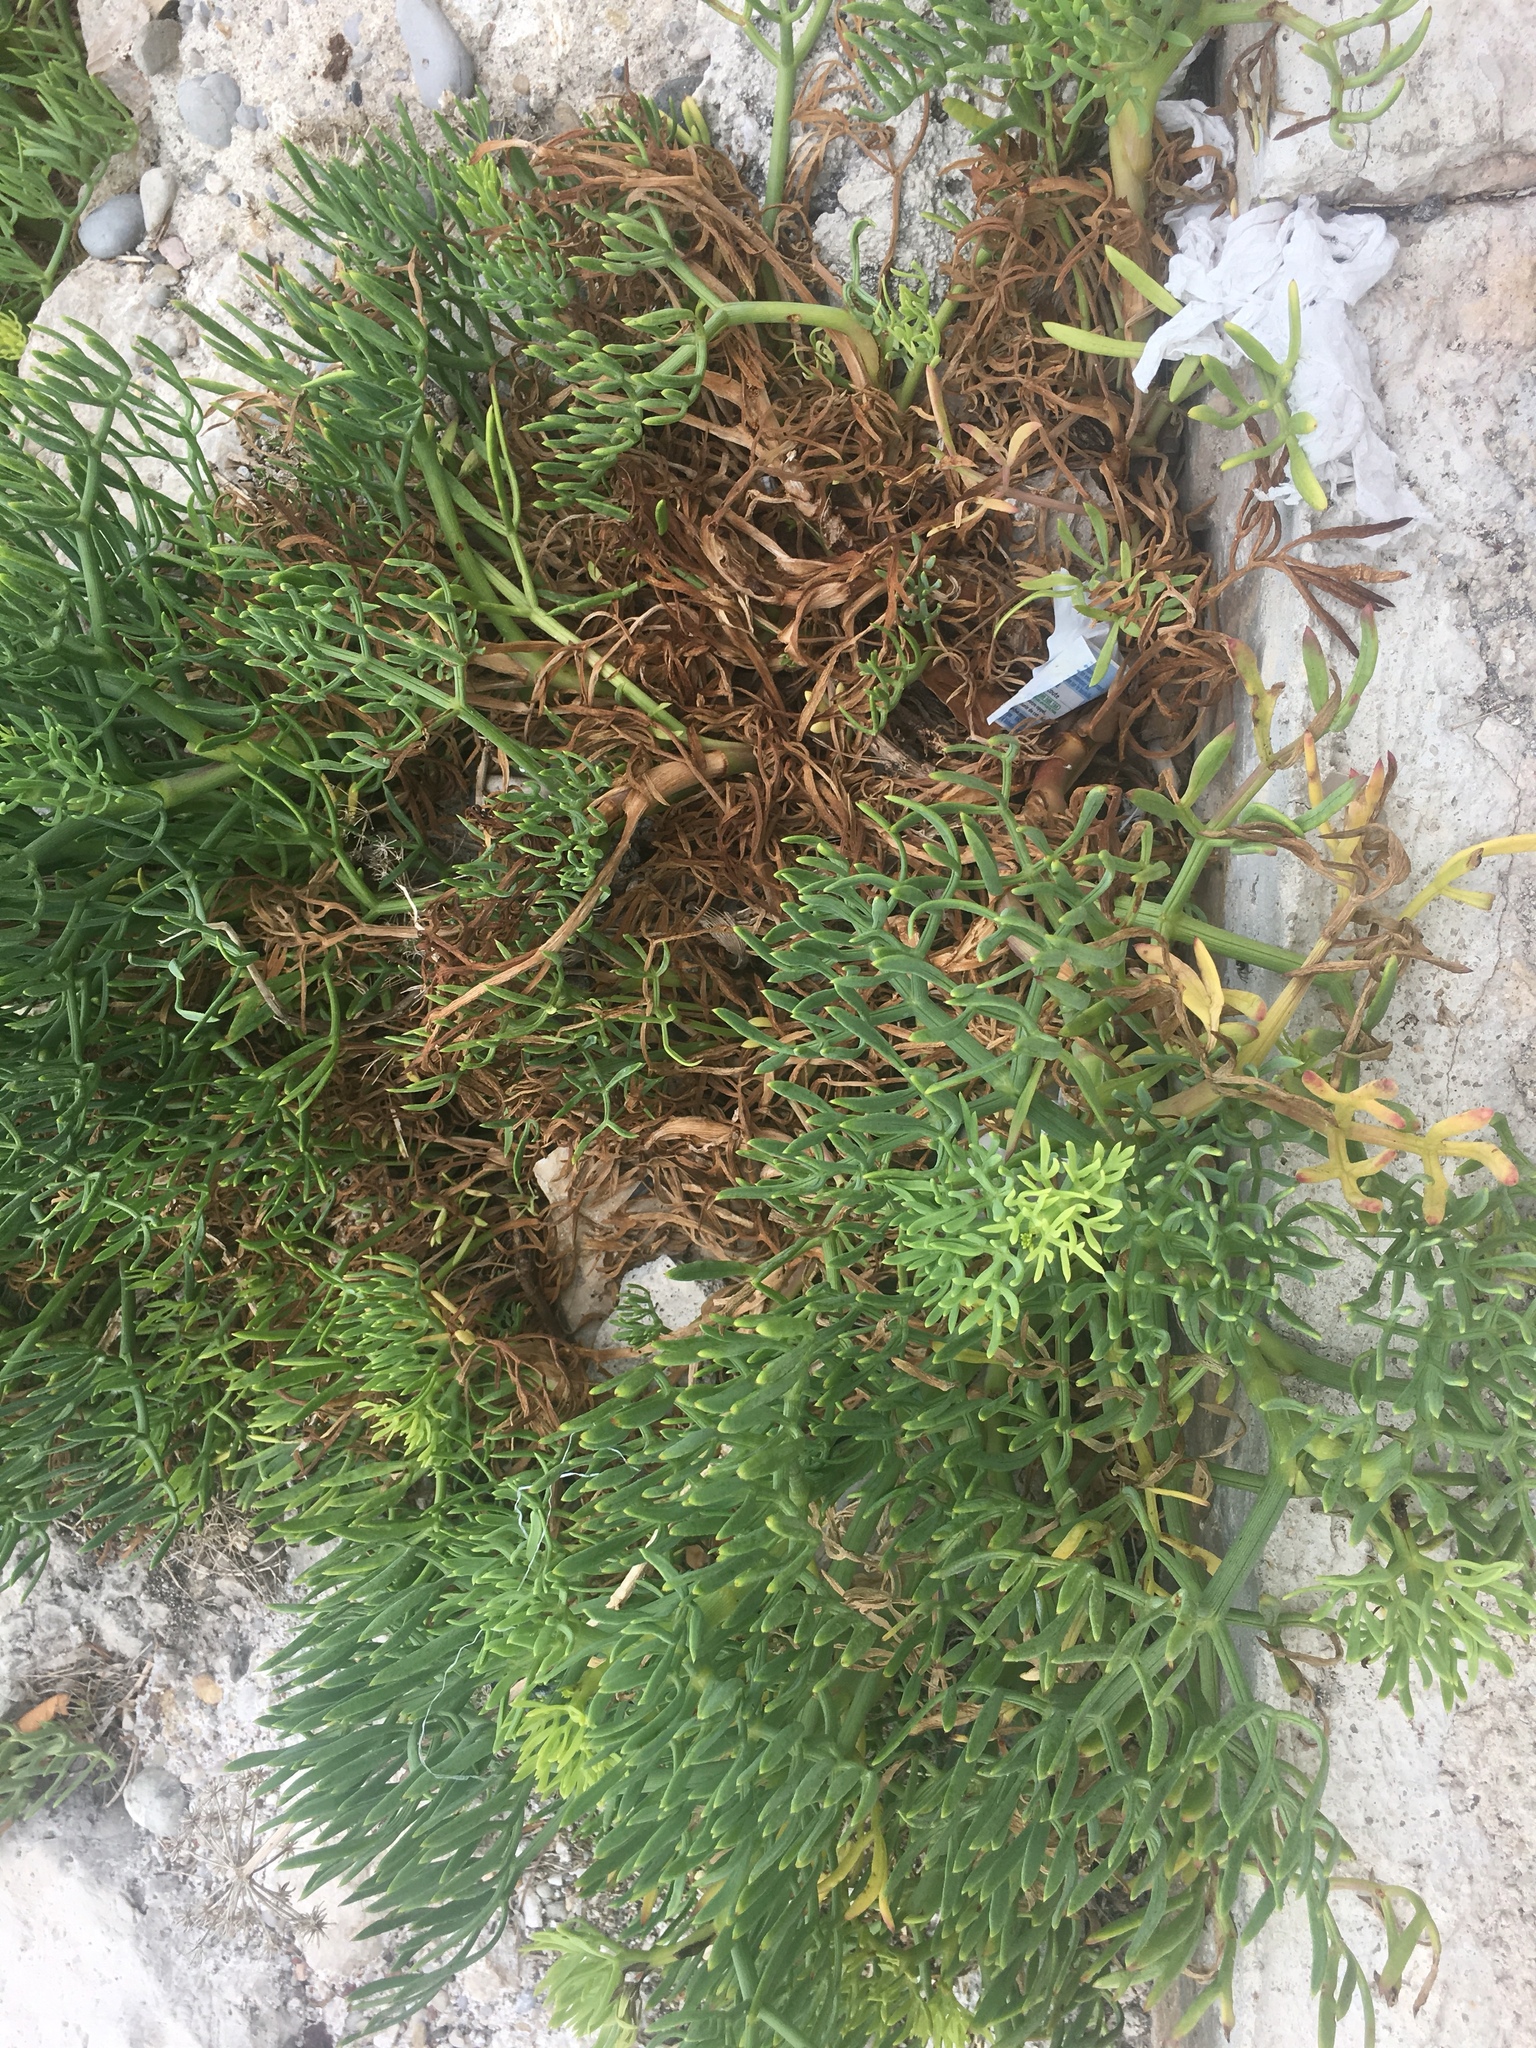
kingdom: Plantae
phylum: Tracheophyta
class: Magnoliopsida
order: Apiales
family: Apiaceae
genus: Crithmum
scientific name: Crithmum maritimum
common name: Rock samphire
